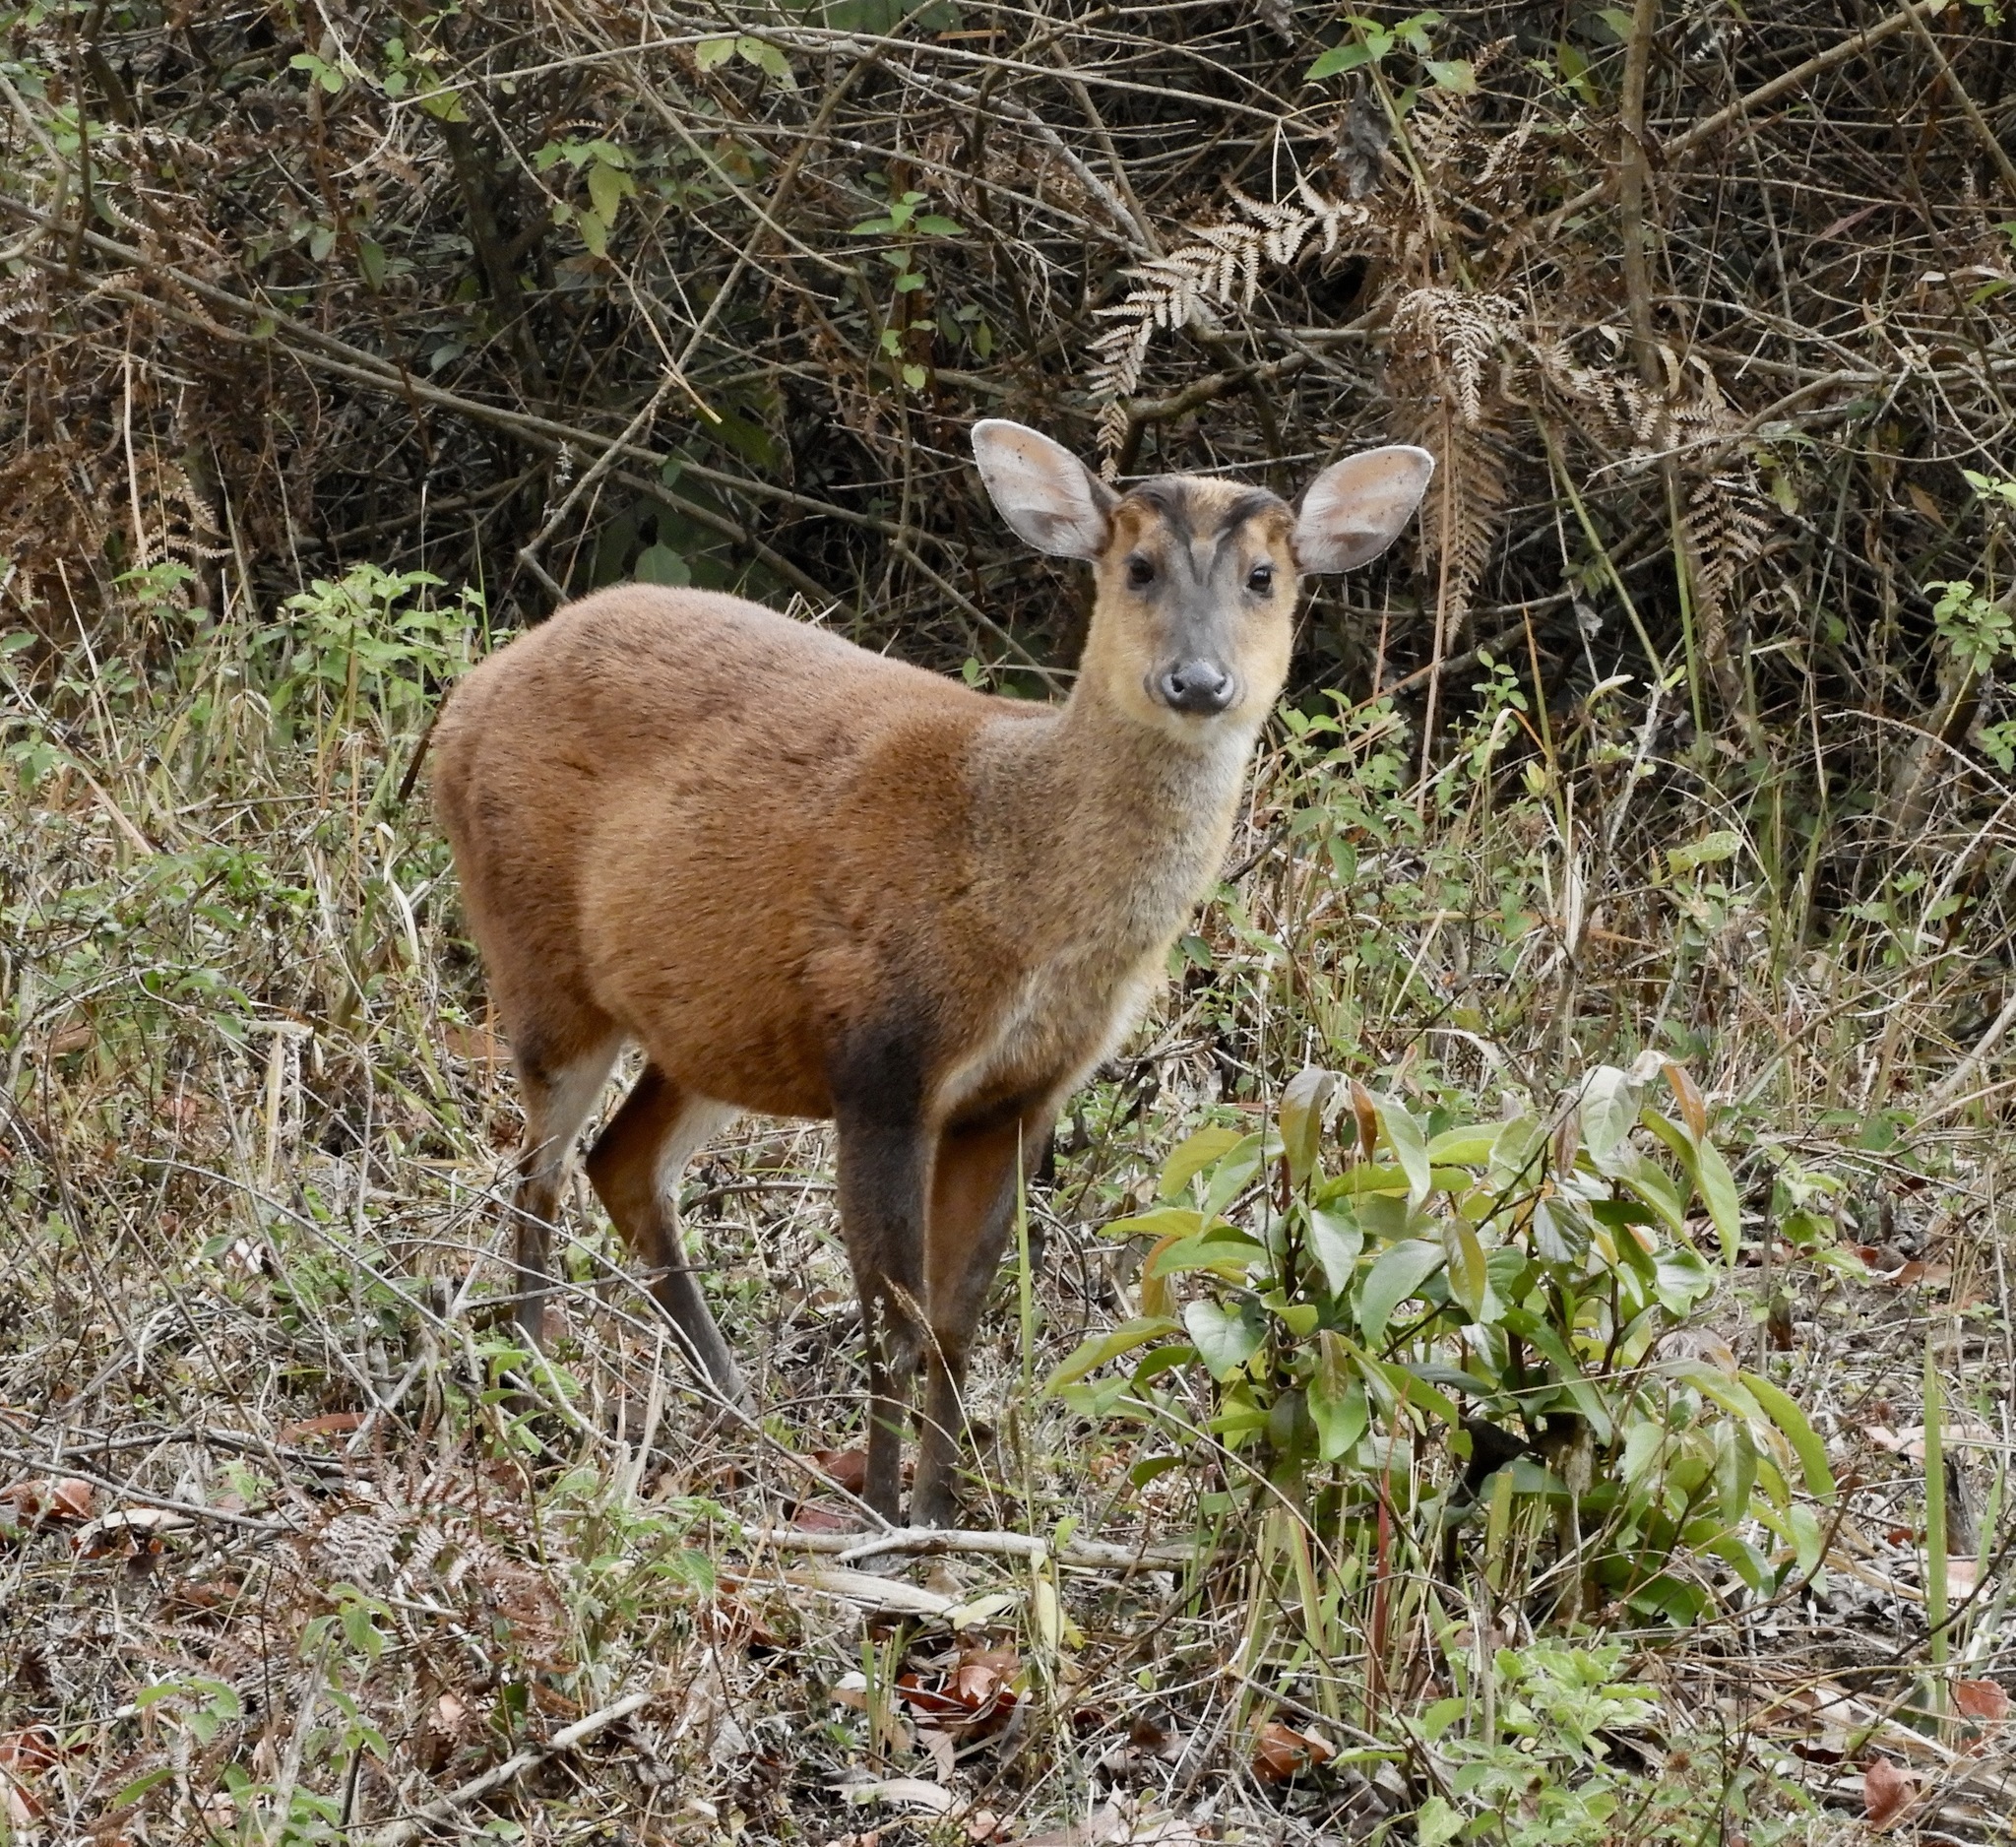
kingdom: Animalia
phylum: Chordata
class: Mammalia
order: Artiodactyla
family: Cervidae
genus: Muntiacus
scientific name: Muntiacus muntjak
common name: Indian muntjac
